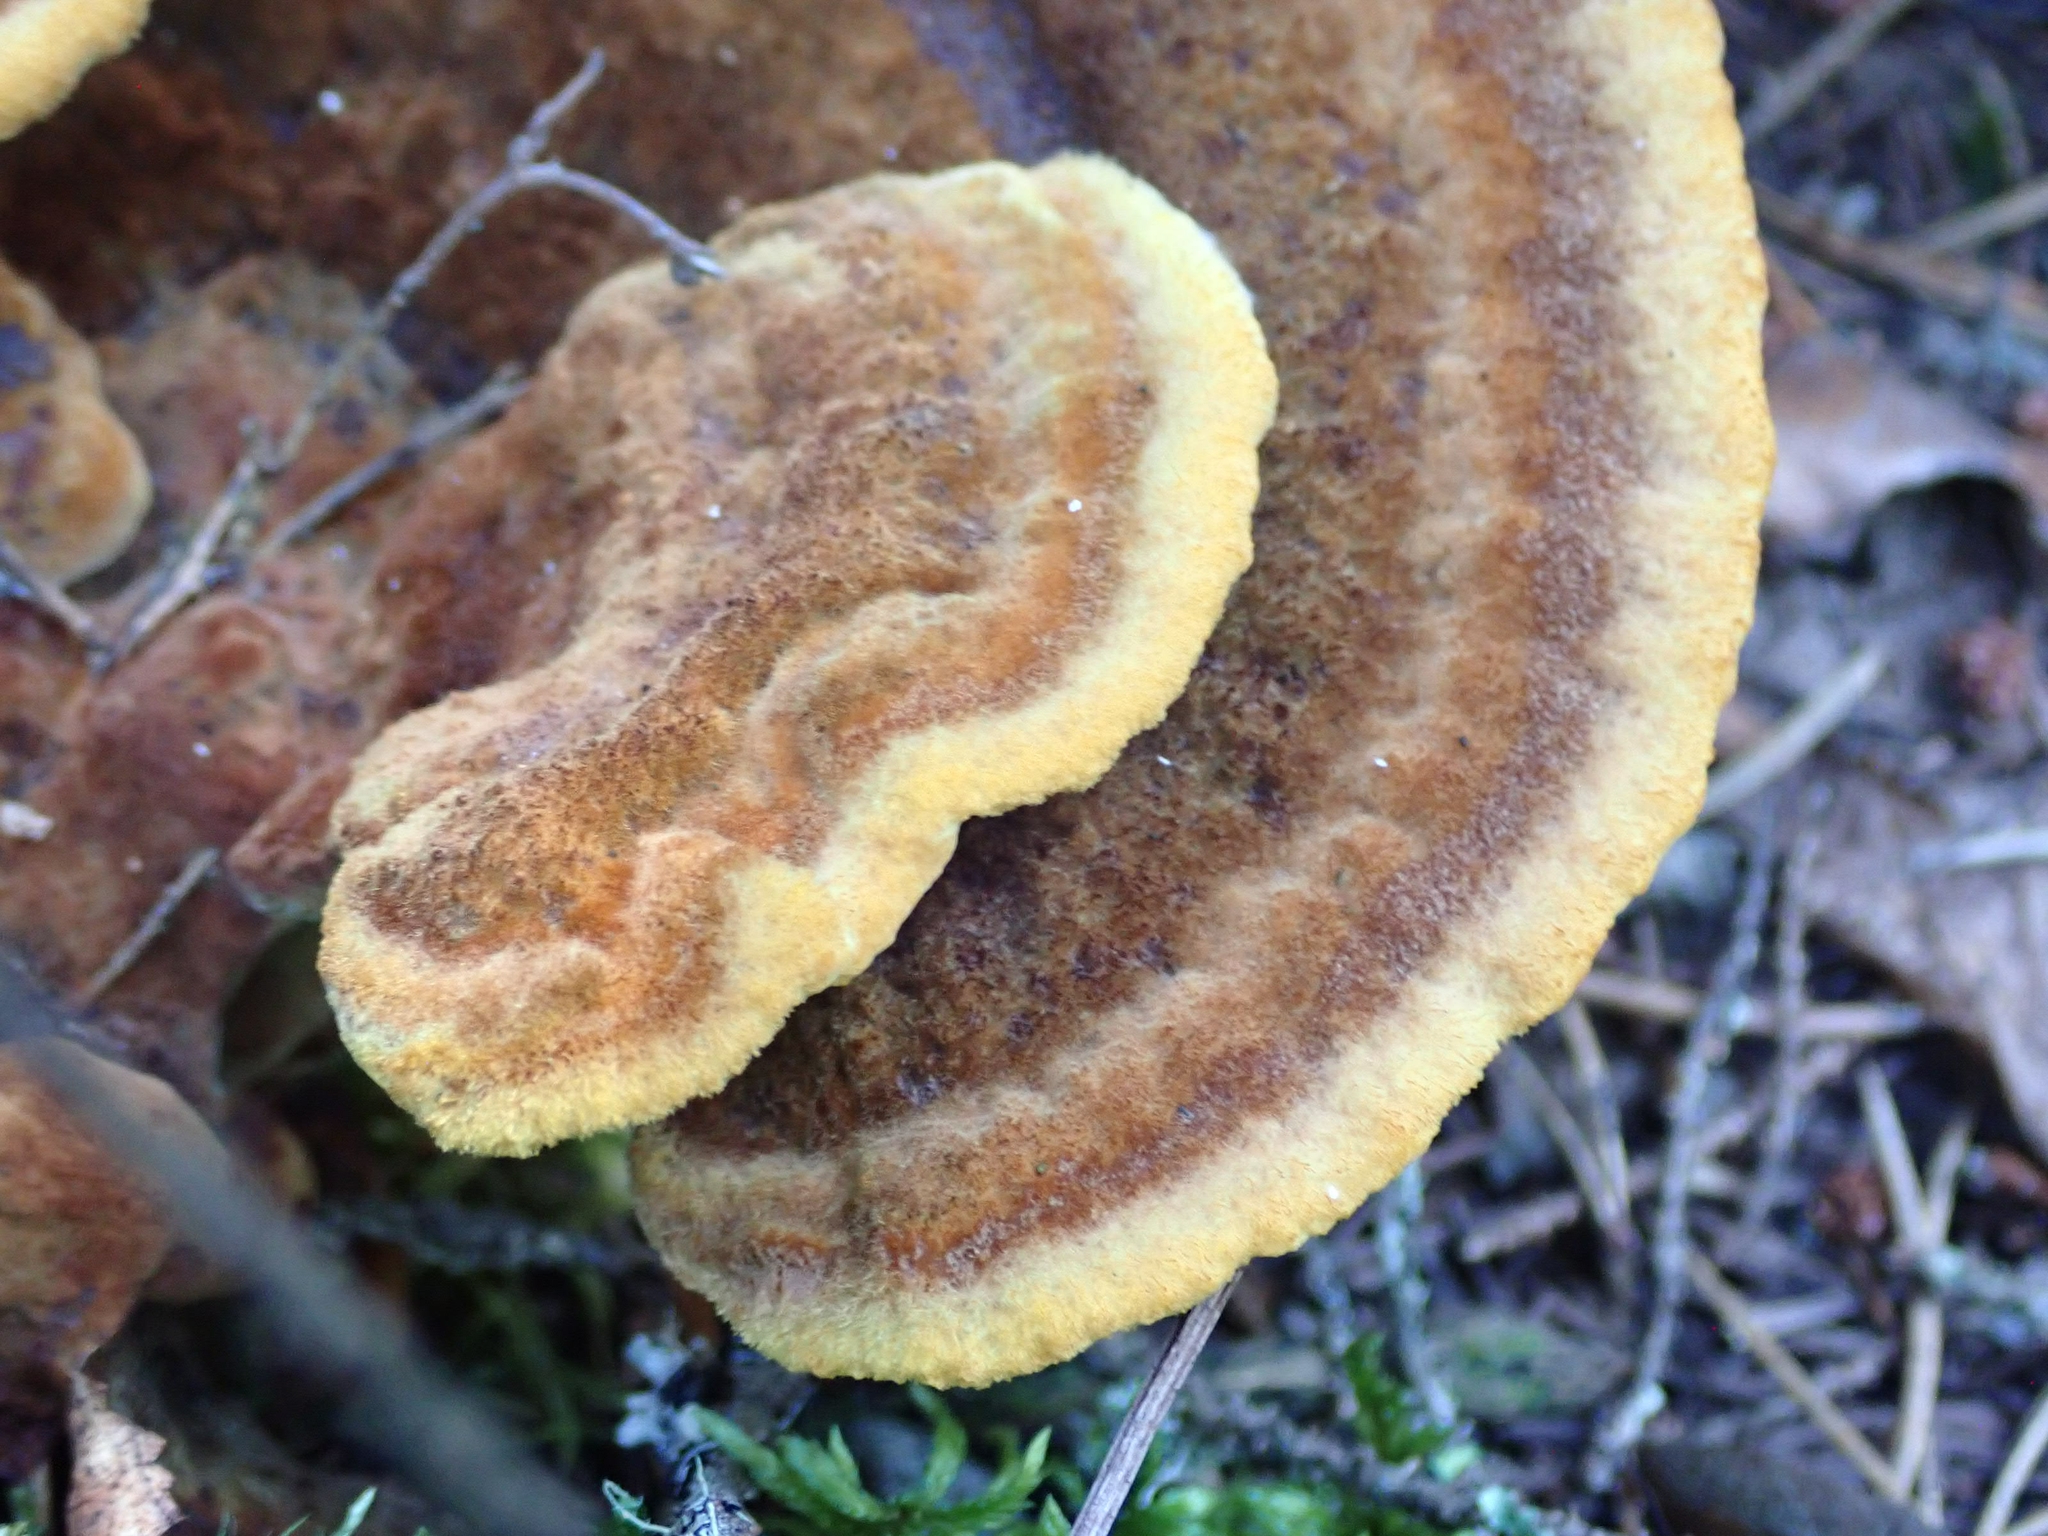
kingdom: Fungi
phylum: Basidiomycota
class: Agaricomycetes
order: Polyporales
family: Laetiporaceae
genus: Phaeolus
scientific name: Phaeolus schweinitzii
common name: Dyer's mazegill
